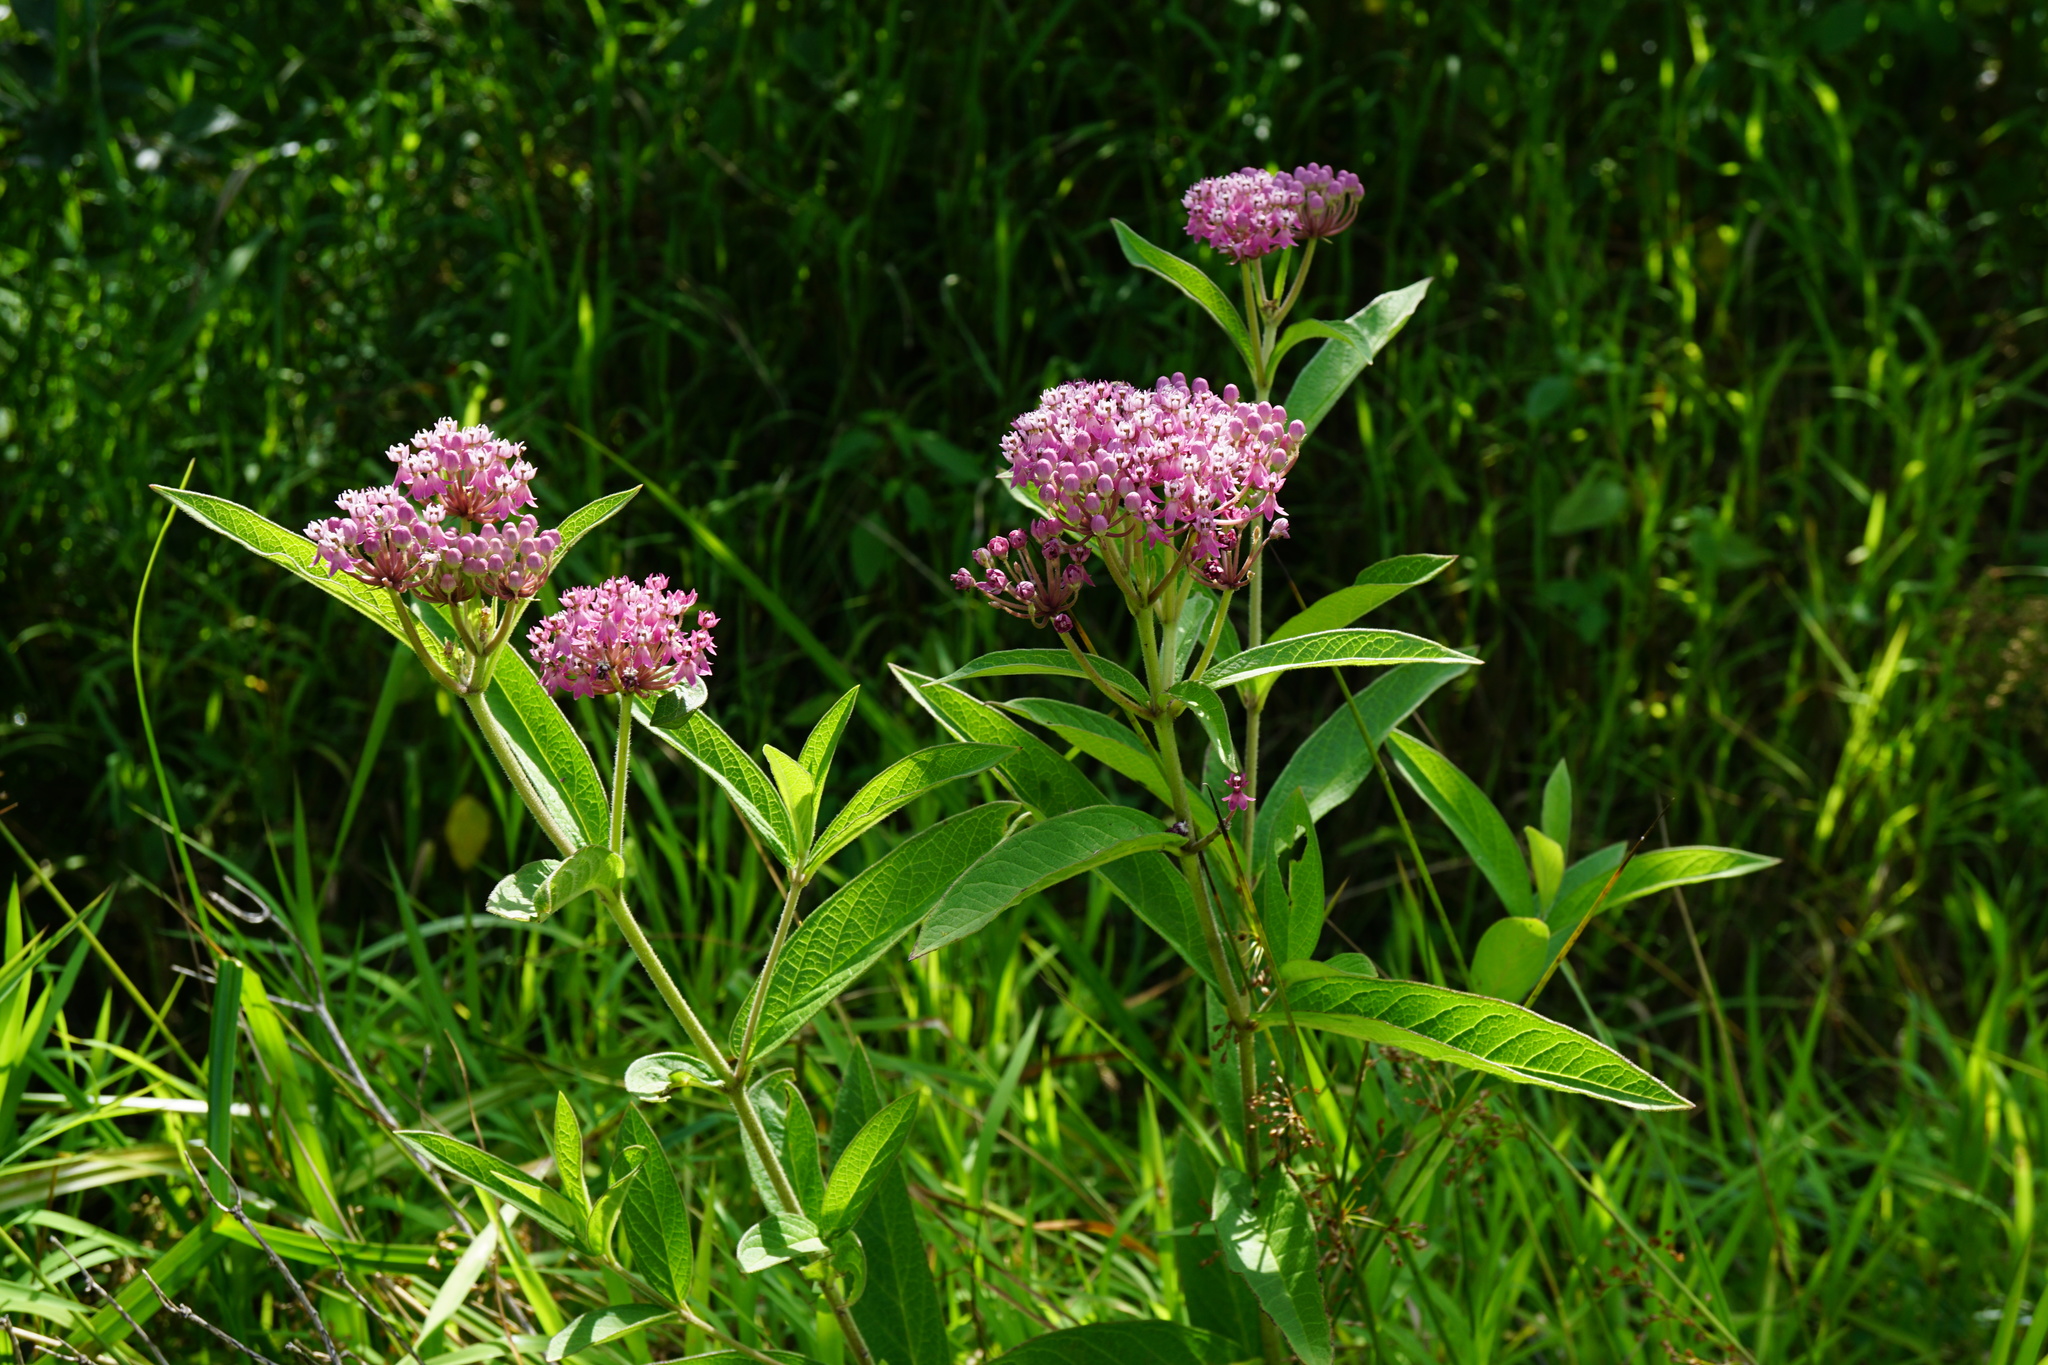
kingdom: Plantae
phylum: Tracheophyta
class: Magnoliopsida
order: Gentianales
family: Apocynaceae
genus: Asclepias
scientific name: Asclepias incarnata
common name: Swamp milkweed
